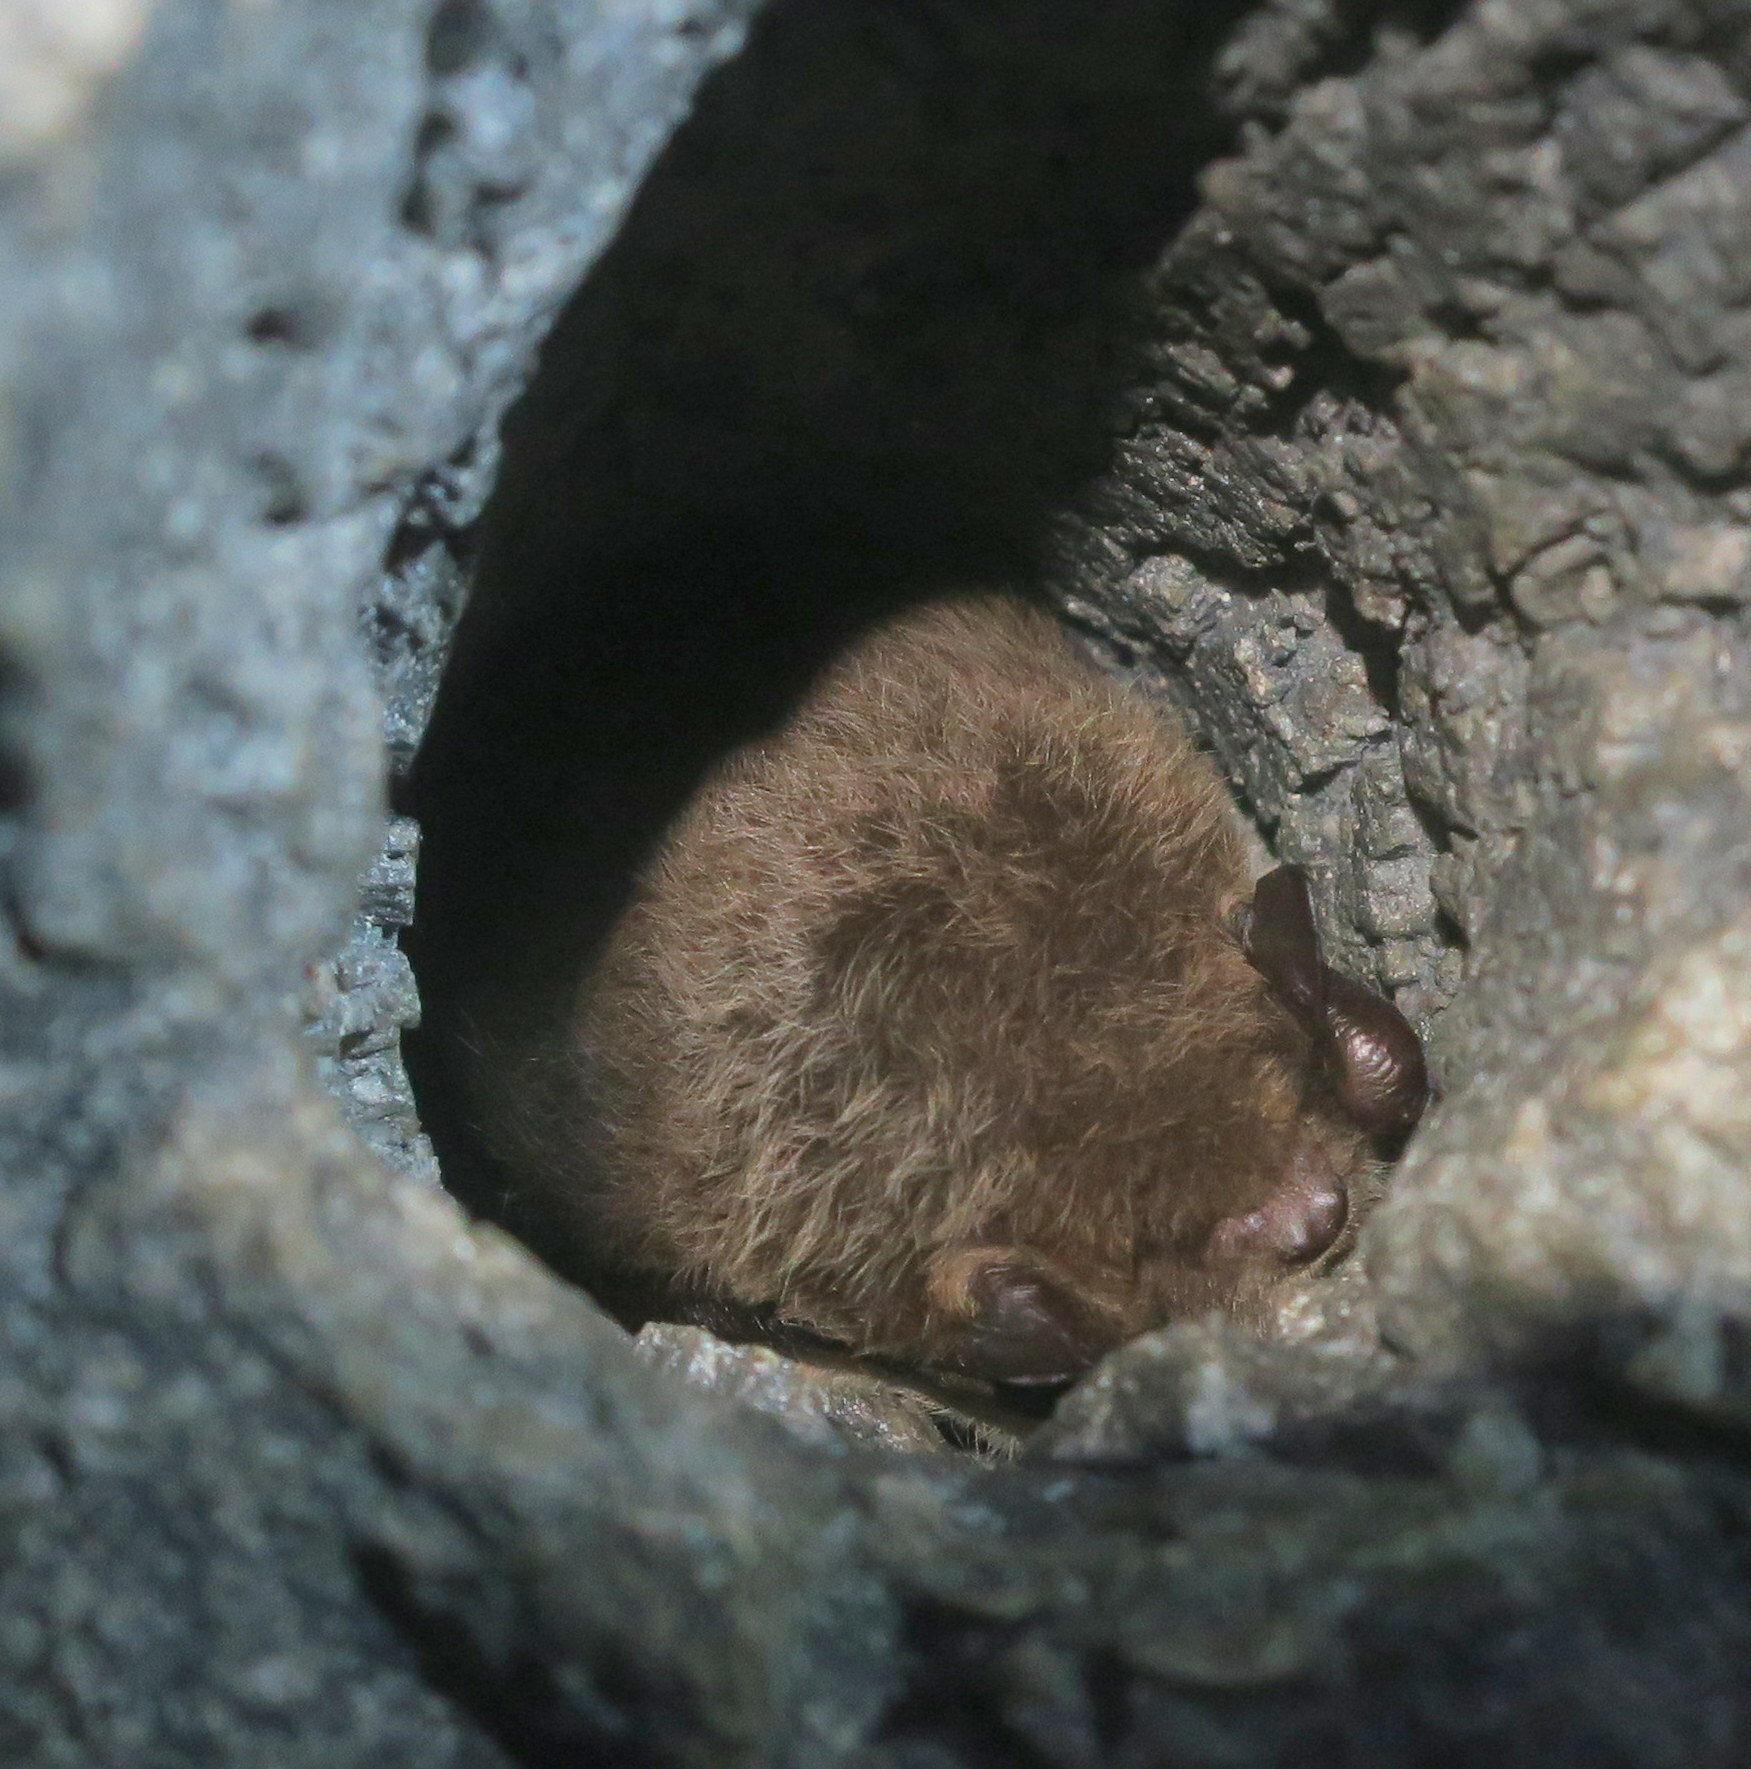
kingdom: Animalia
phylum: Chordata
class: Mammalia
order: Chiroptera
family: Vespertilionidae
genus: Myotis
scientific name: Myotis daubentonii
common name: Daubenton's myotis
